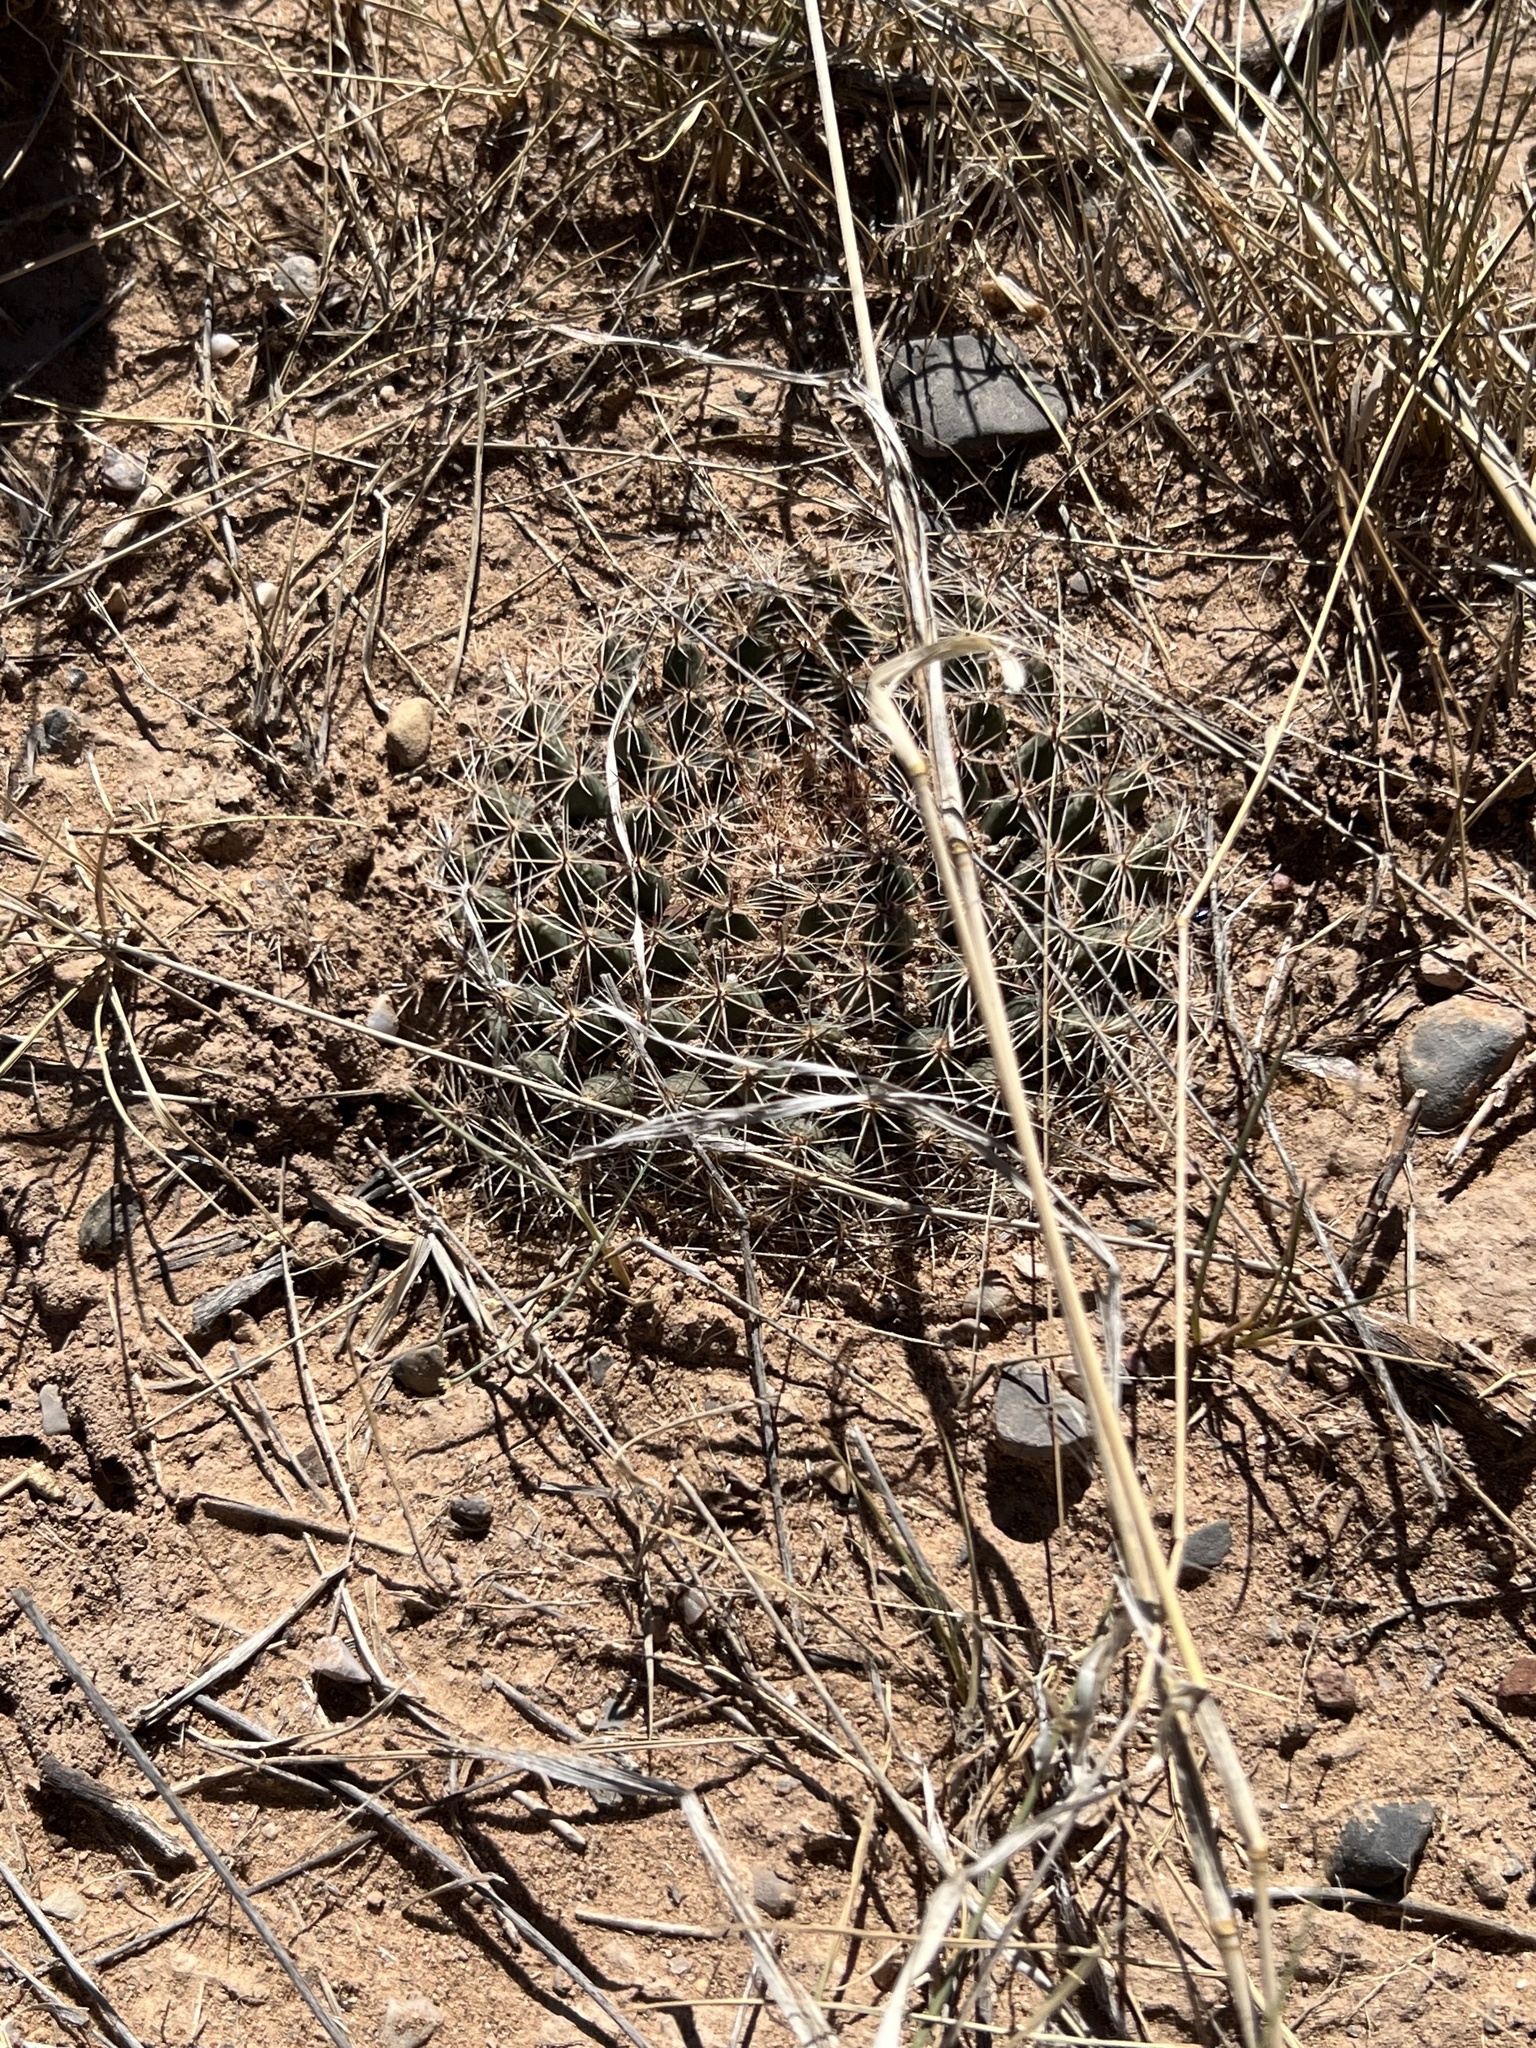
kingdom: Plantae
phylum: Tracheophyta
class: Magnoliopsida
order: Caryophyllales
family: Cactaceae
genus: Mammillaria
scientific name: Mammillaria heyderi
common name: Little nipple cactus
